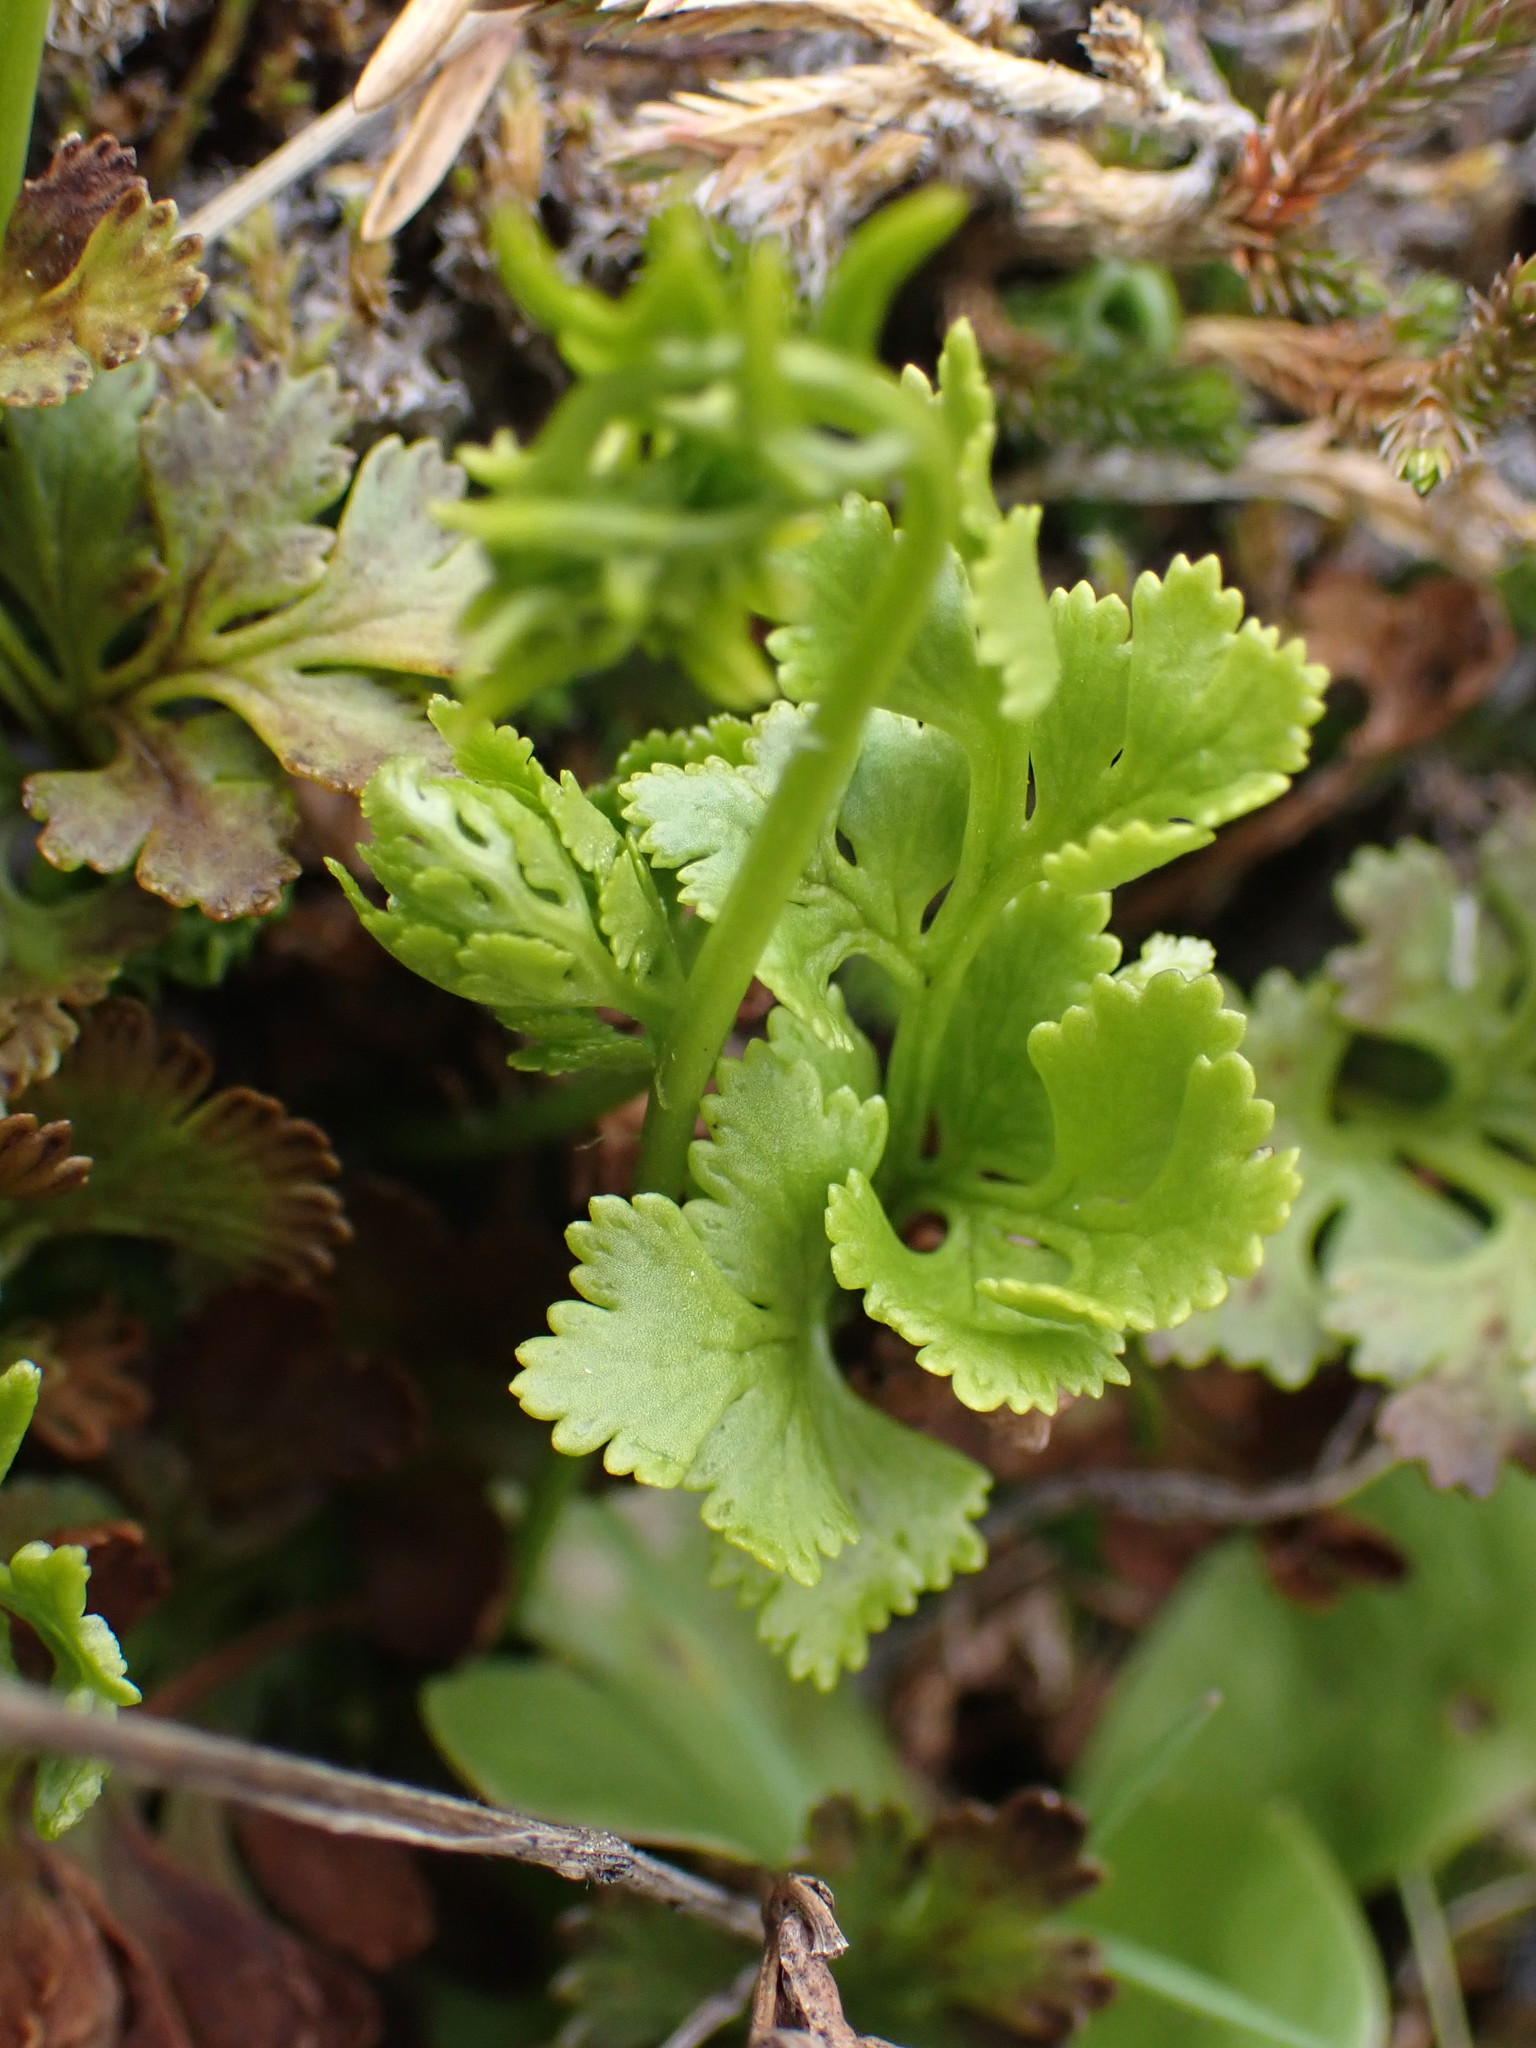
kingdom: Plantae
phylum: Tracheophyta
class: Polypodiopsida
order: Polypodiales
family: Pteridaceae
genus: Cryptogramma
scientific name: Cryptogramma acrostichoides
